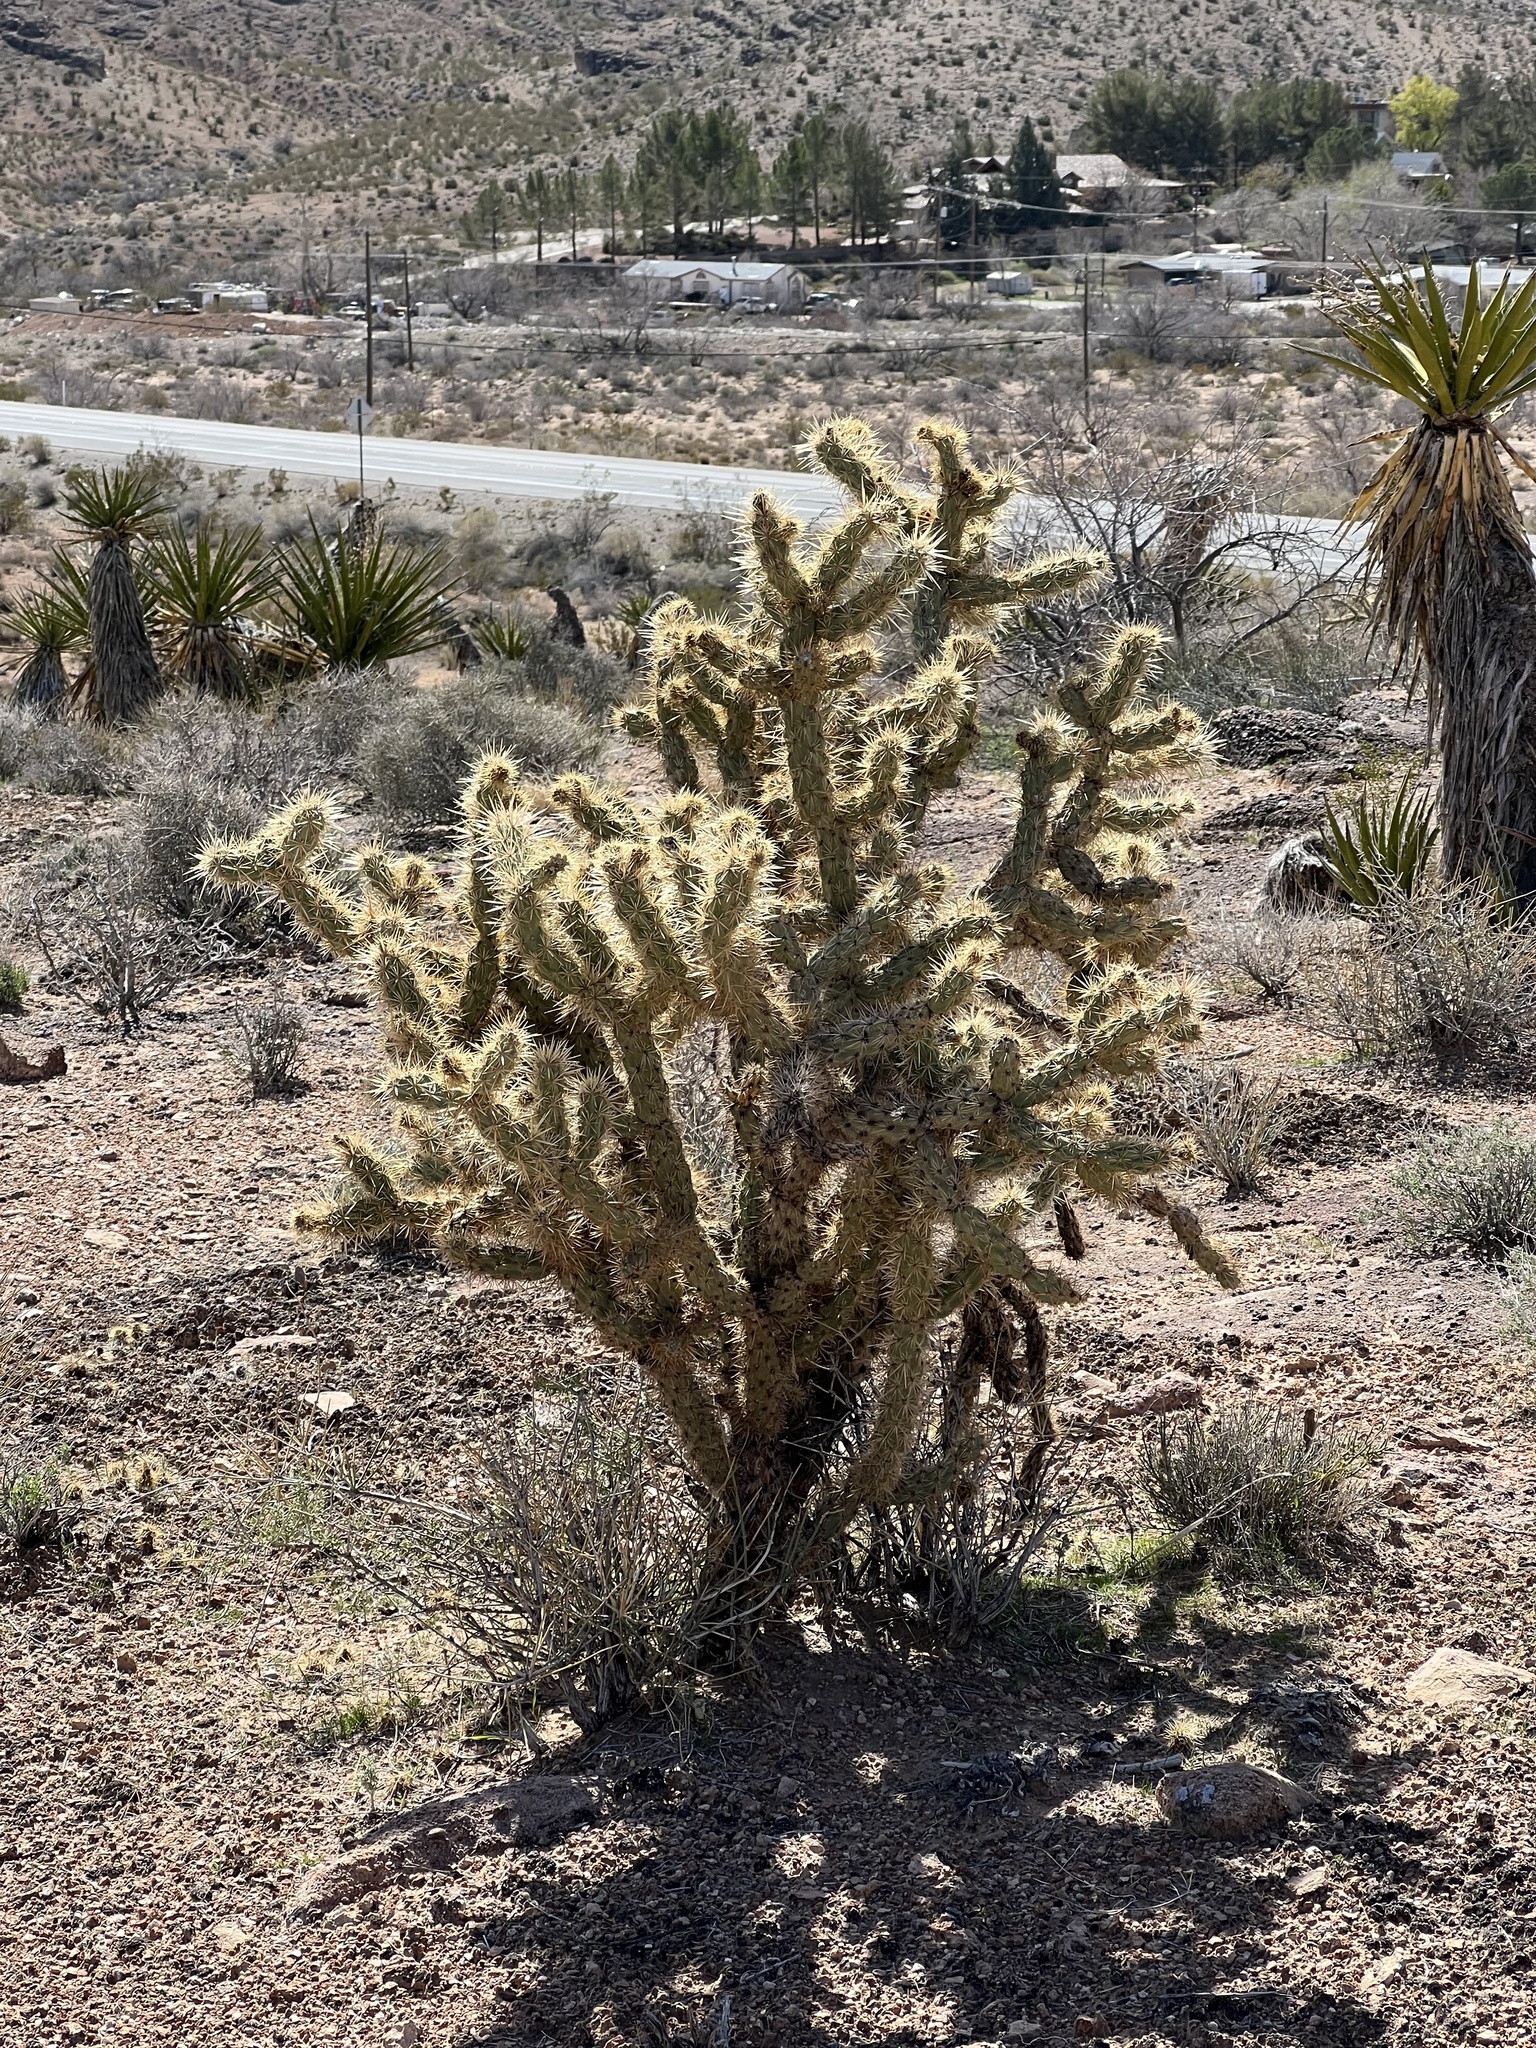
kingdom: Plantae
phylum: Tracheophyta
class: Magnoliopsida
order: Caryophyllales
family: Cactaceae
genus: Cylindropuntia
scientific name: Cylindropuntia acanthocarpa
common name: Buckhorn cholla
